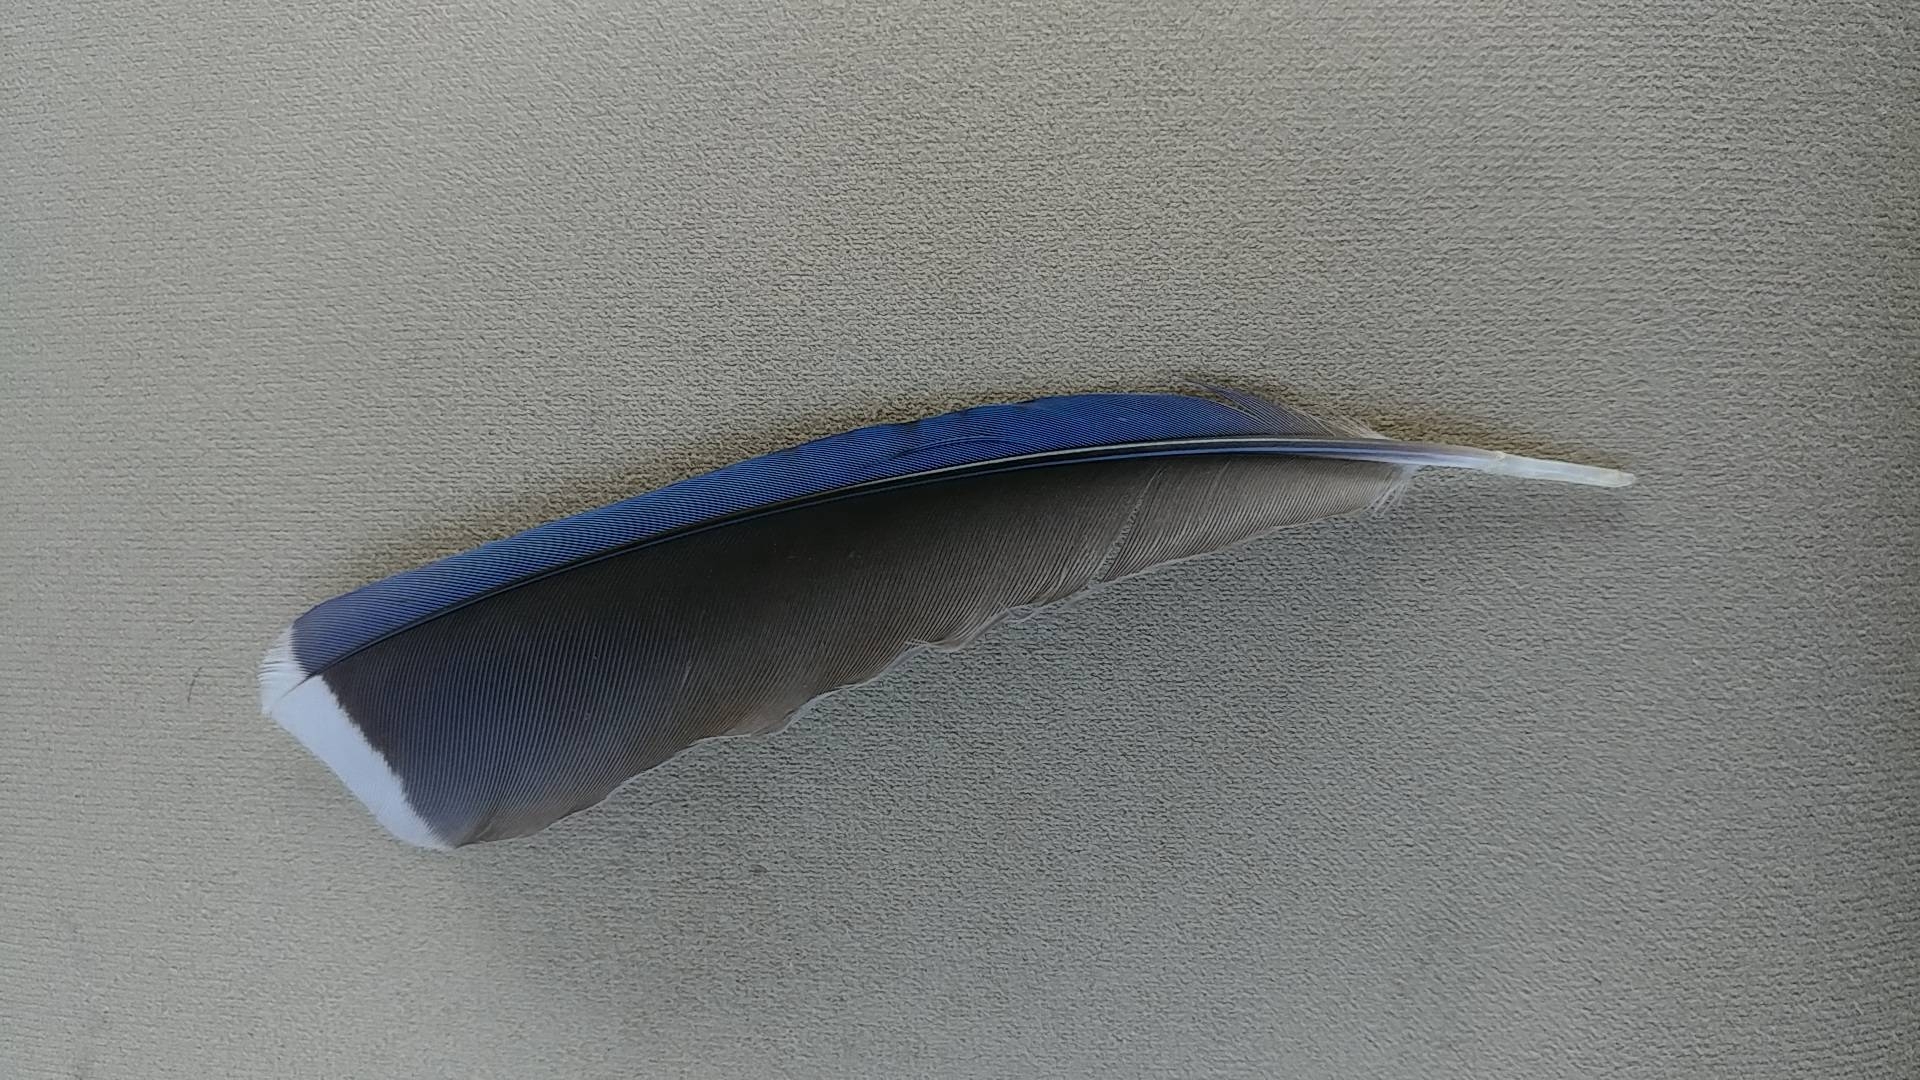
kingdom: Animalia
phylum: Chordata
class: Aves
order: Passeriformes
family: Corvidae
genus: Cyanocitta
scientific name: Cyanocitta cristata
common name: Blue jay
